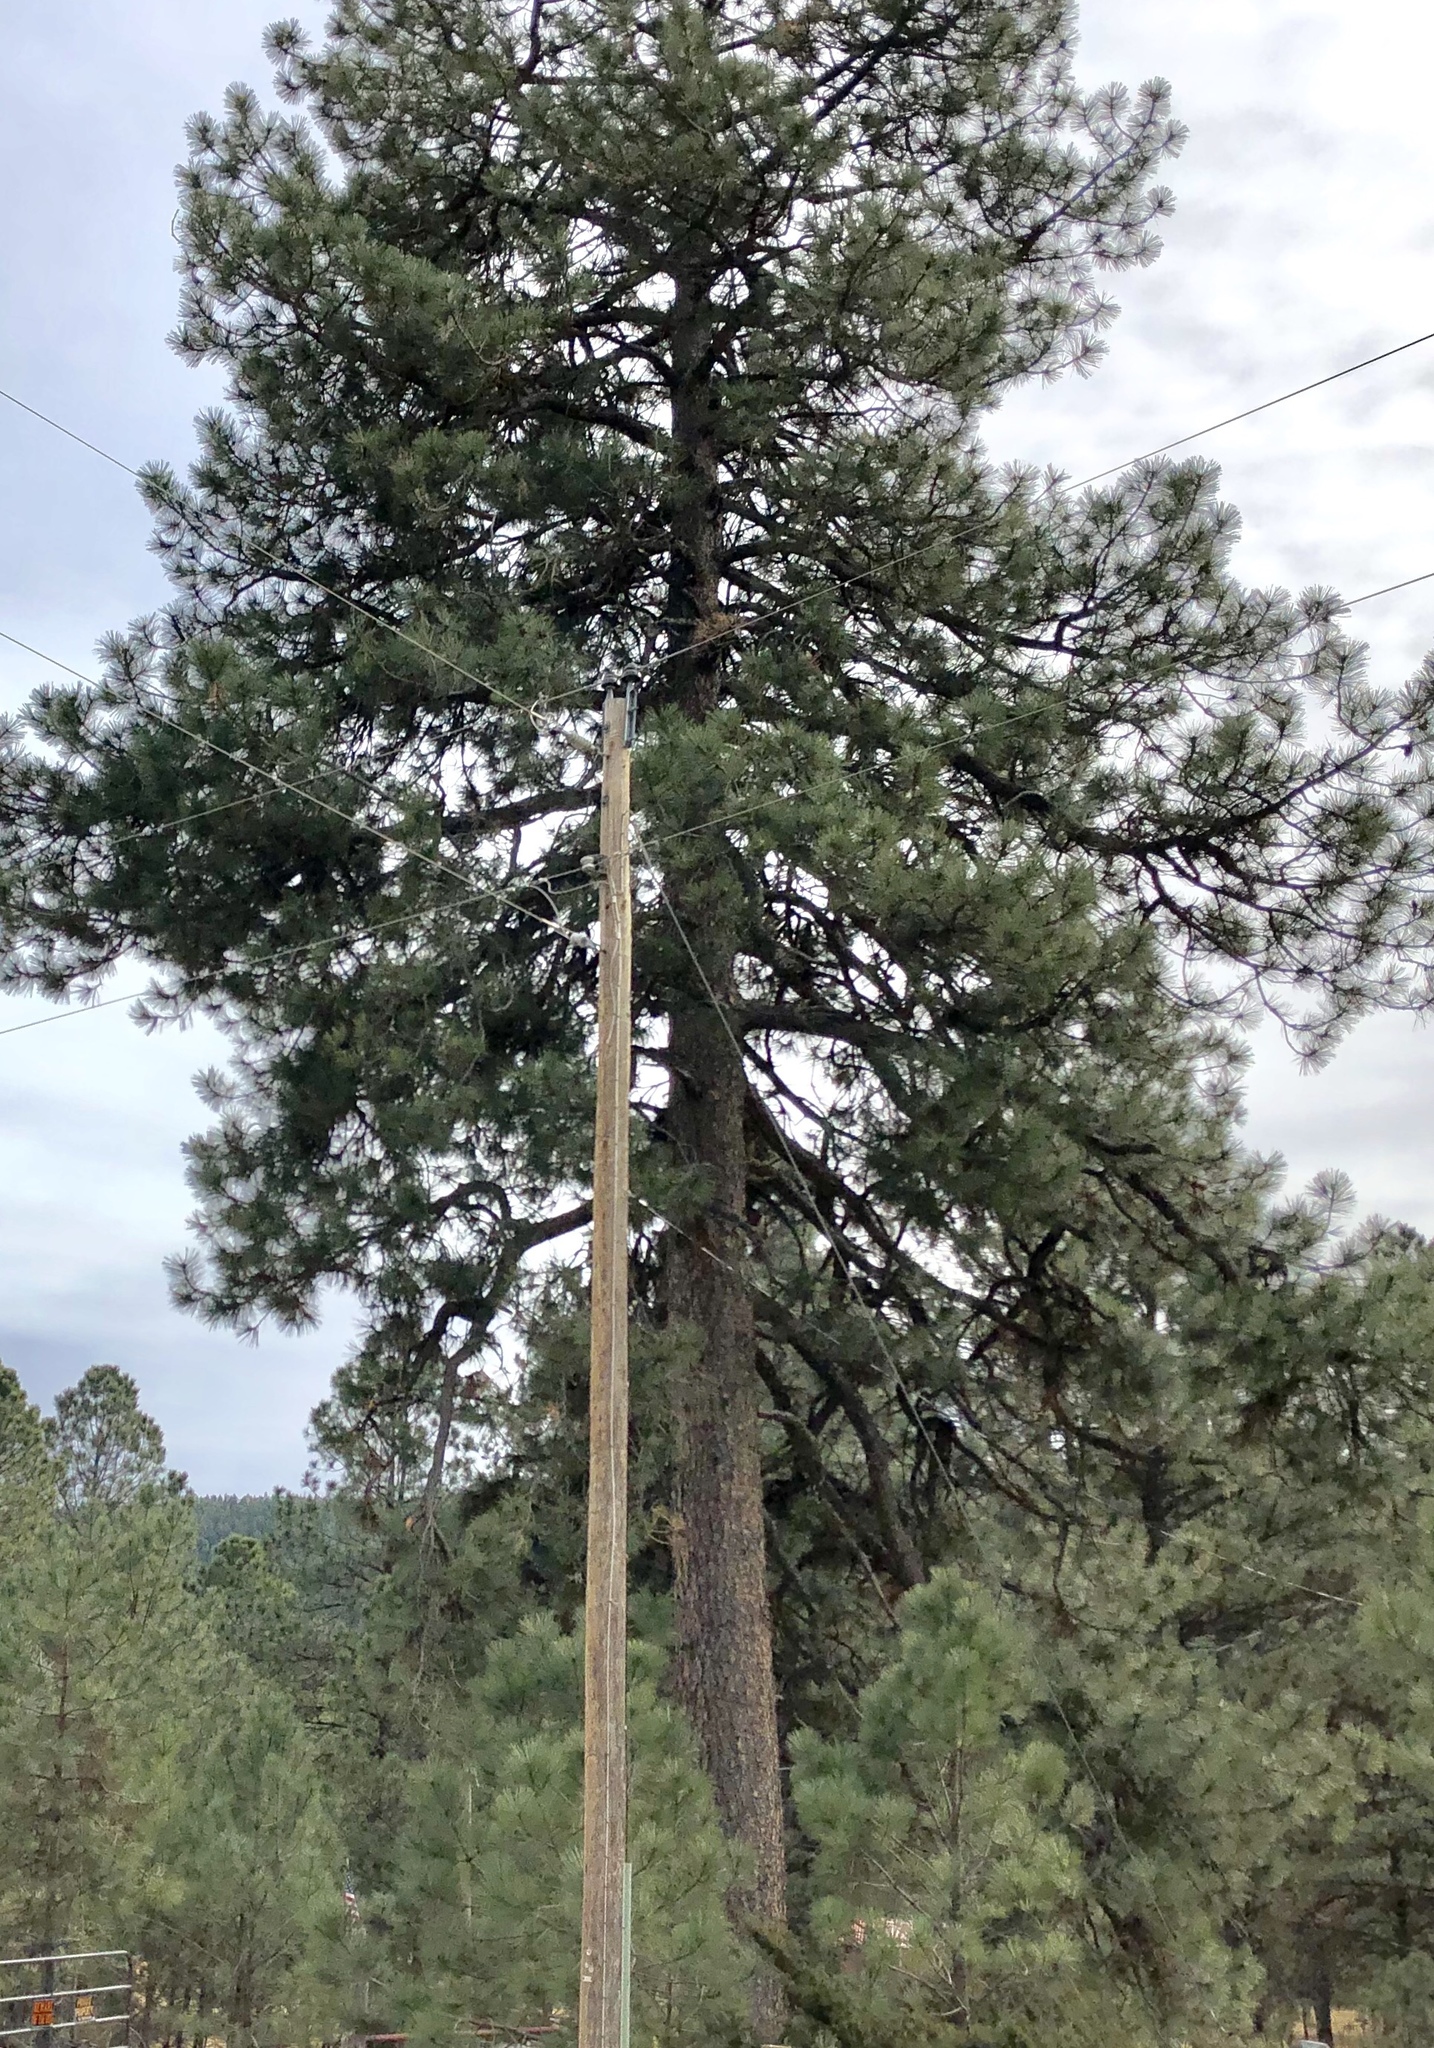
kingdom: Plantae
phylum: Tracheophyta
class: Pinopsida
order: Pinales
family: Pinaceae
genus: Pinus
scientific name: Pinus ponderosa
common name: Western yellow-pine
